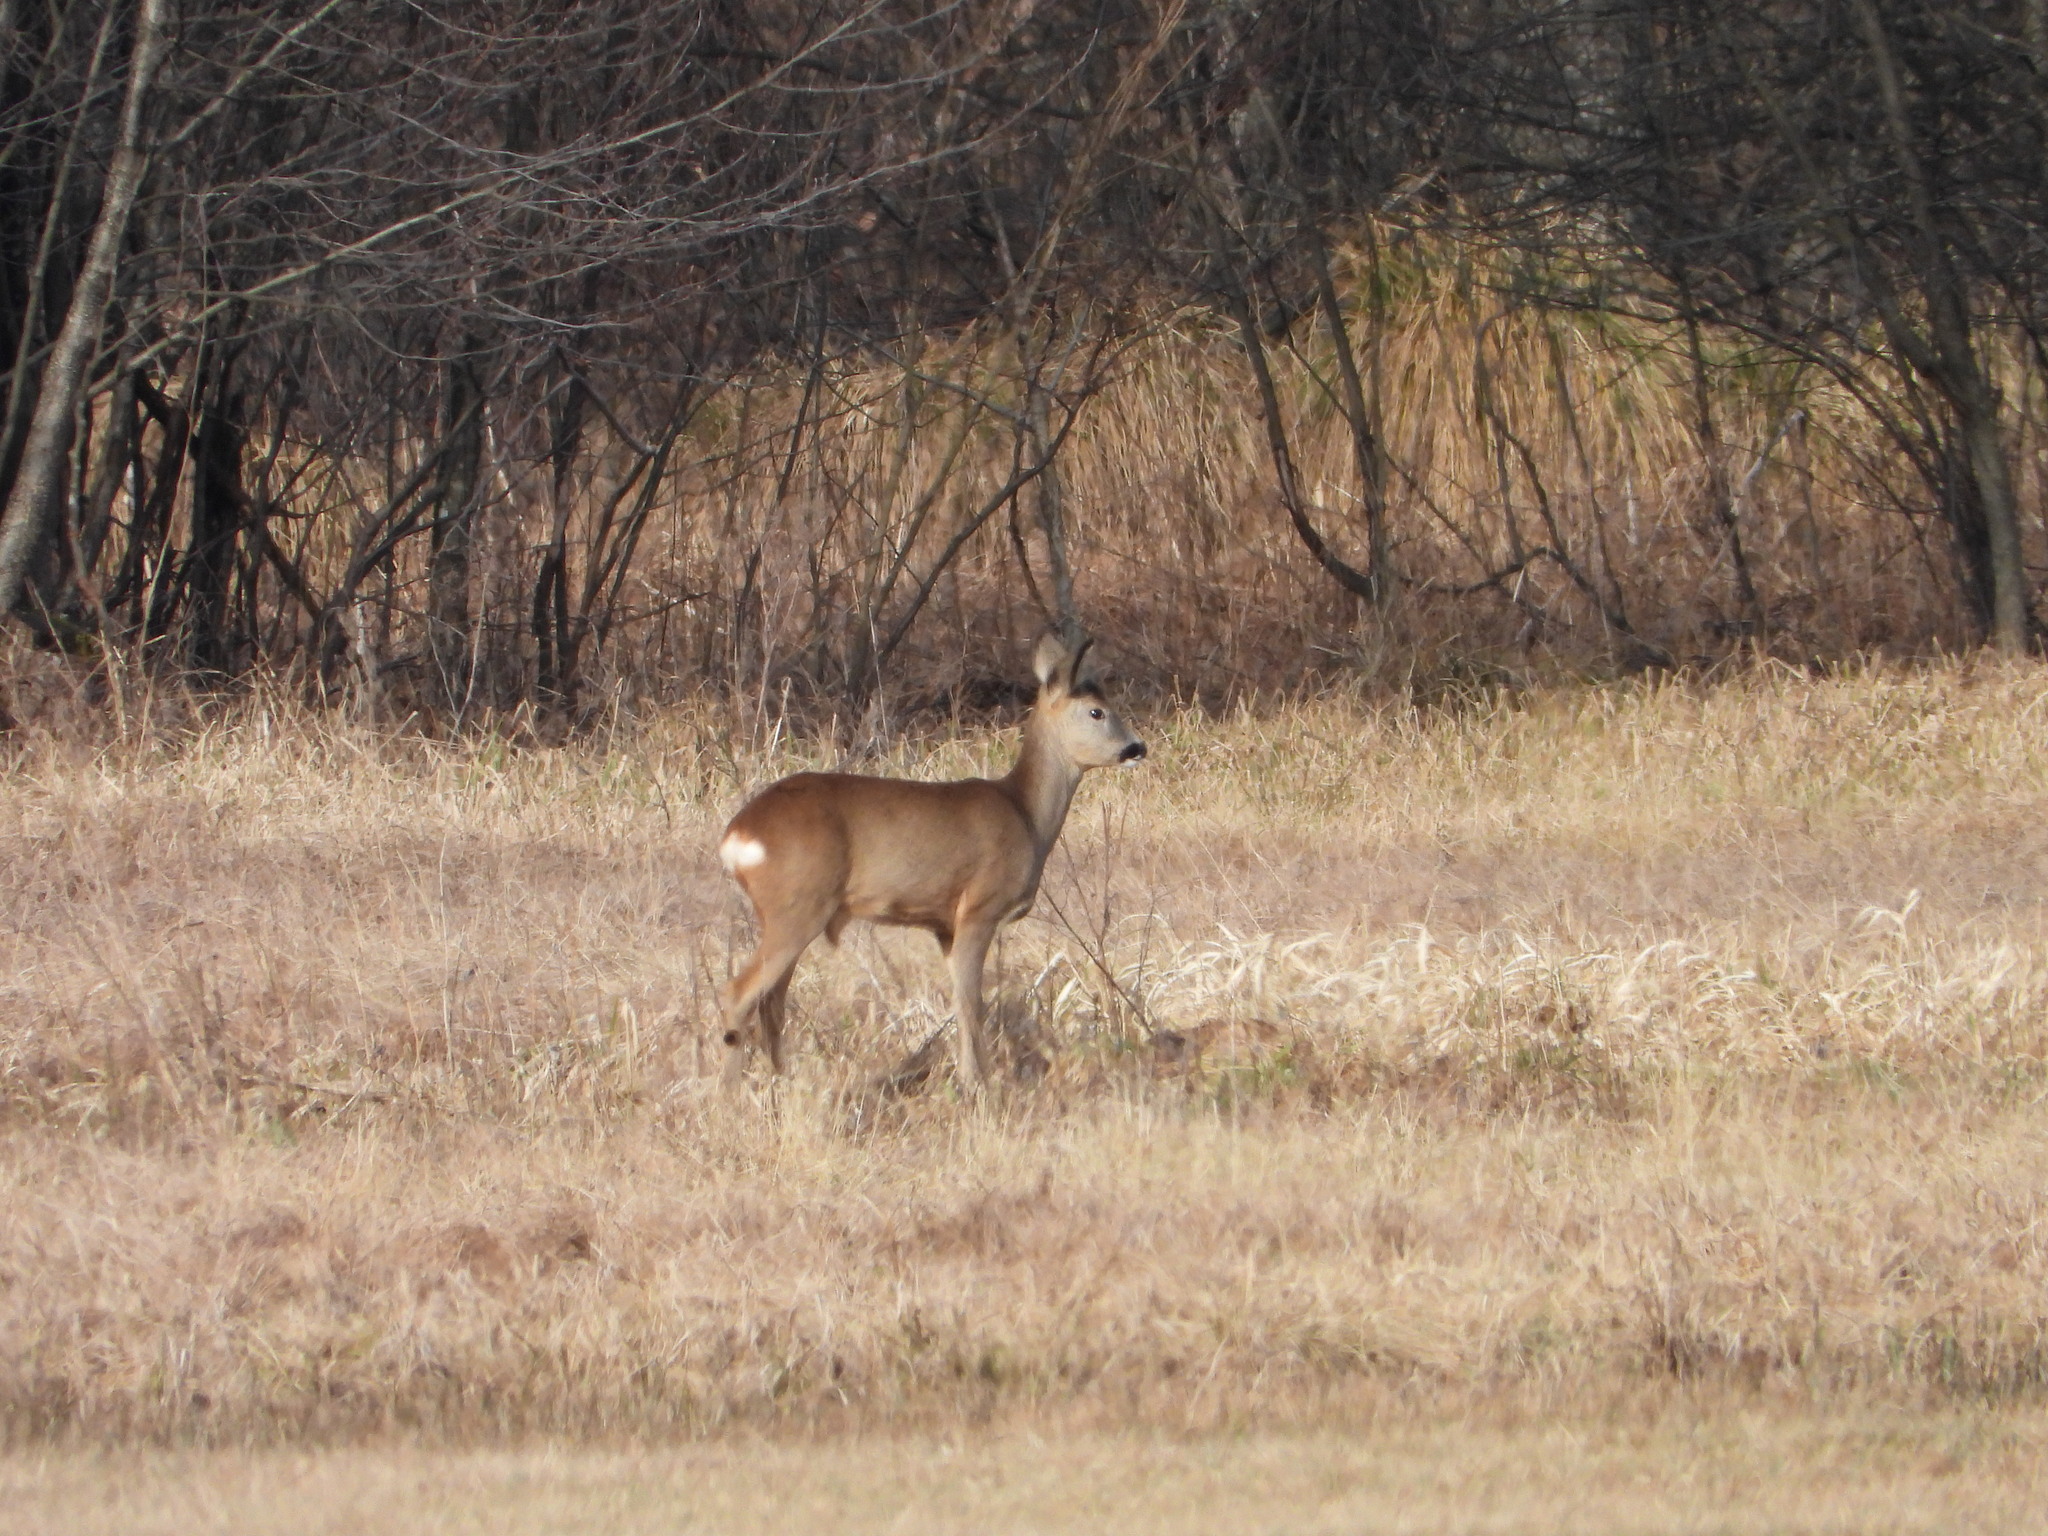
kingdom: Animalia
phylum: Chordata
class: Mammalia
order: Artiodactyla
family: Cervidae
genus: Capreolus
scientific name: Capreolus capreolus
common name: Western roe deer
